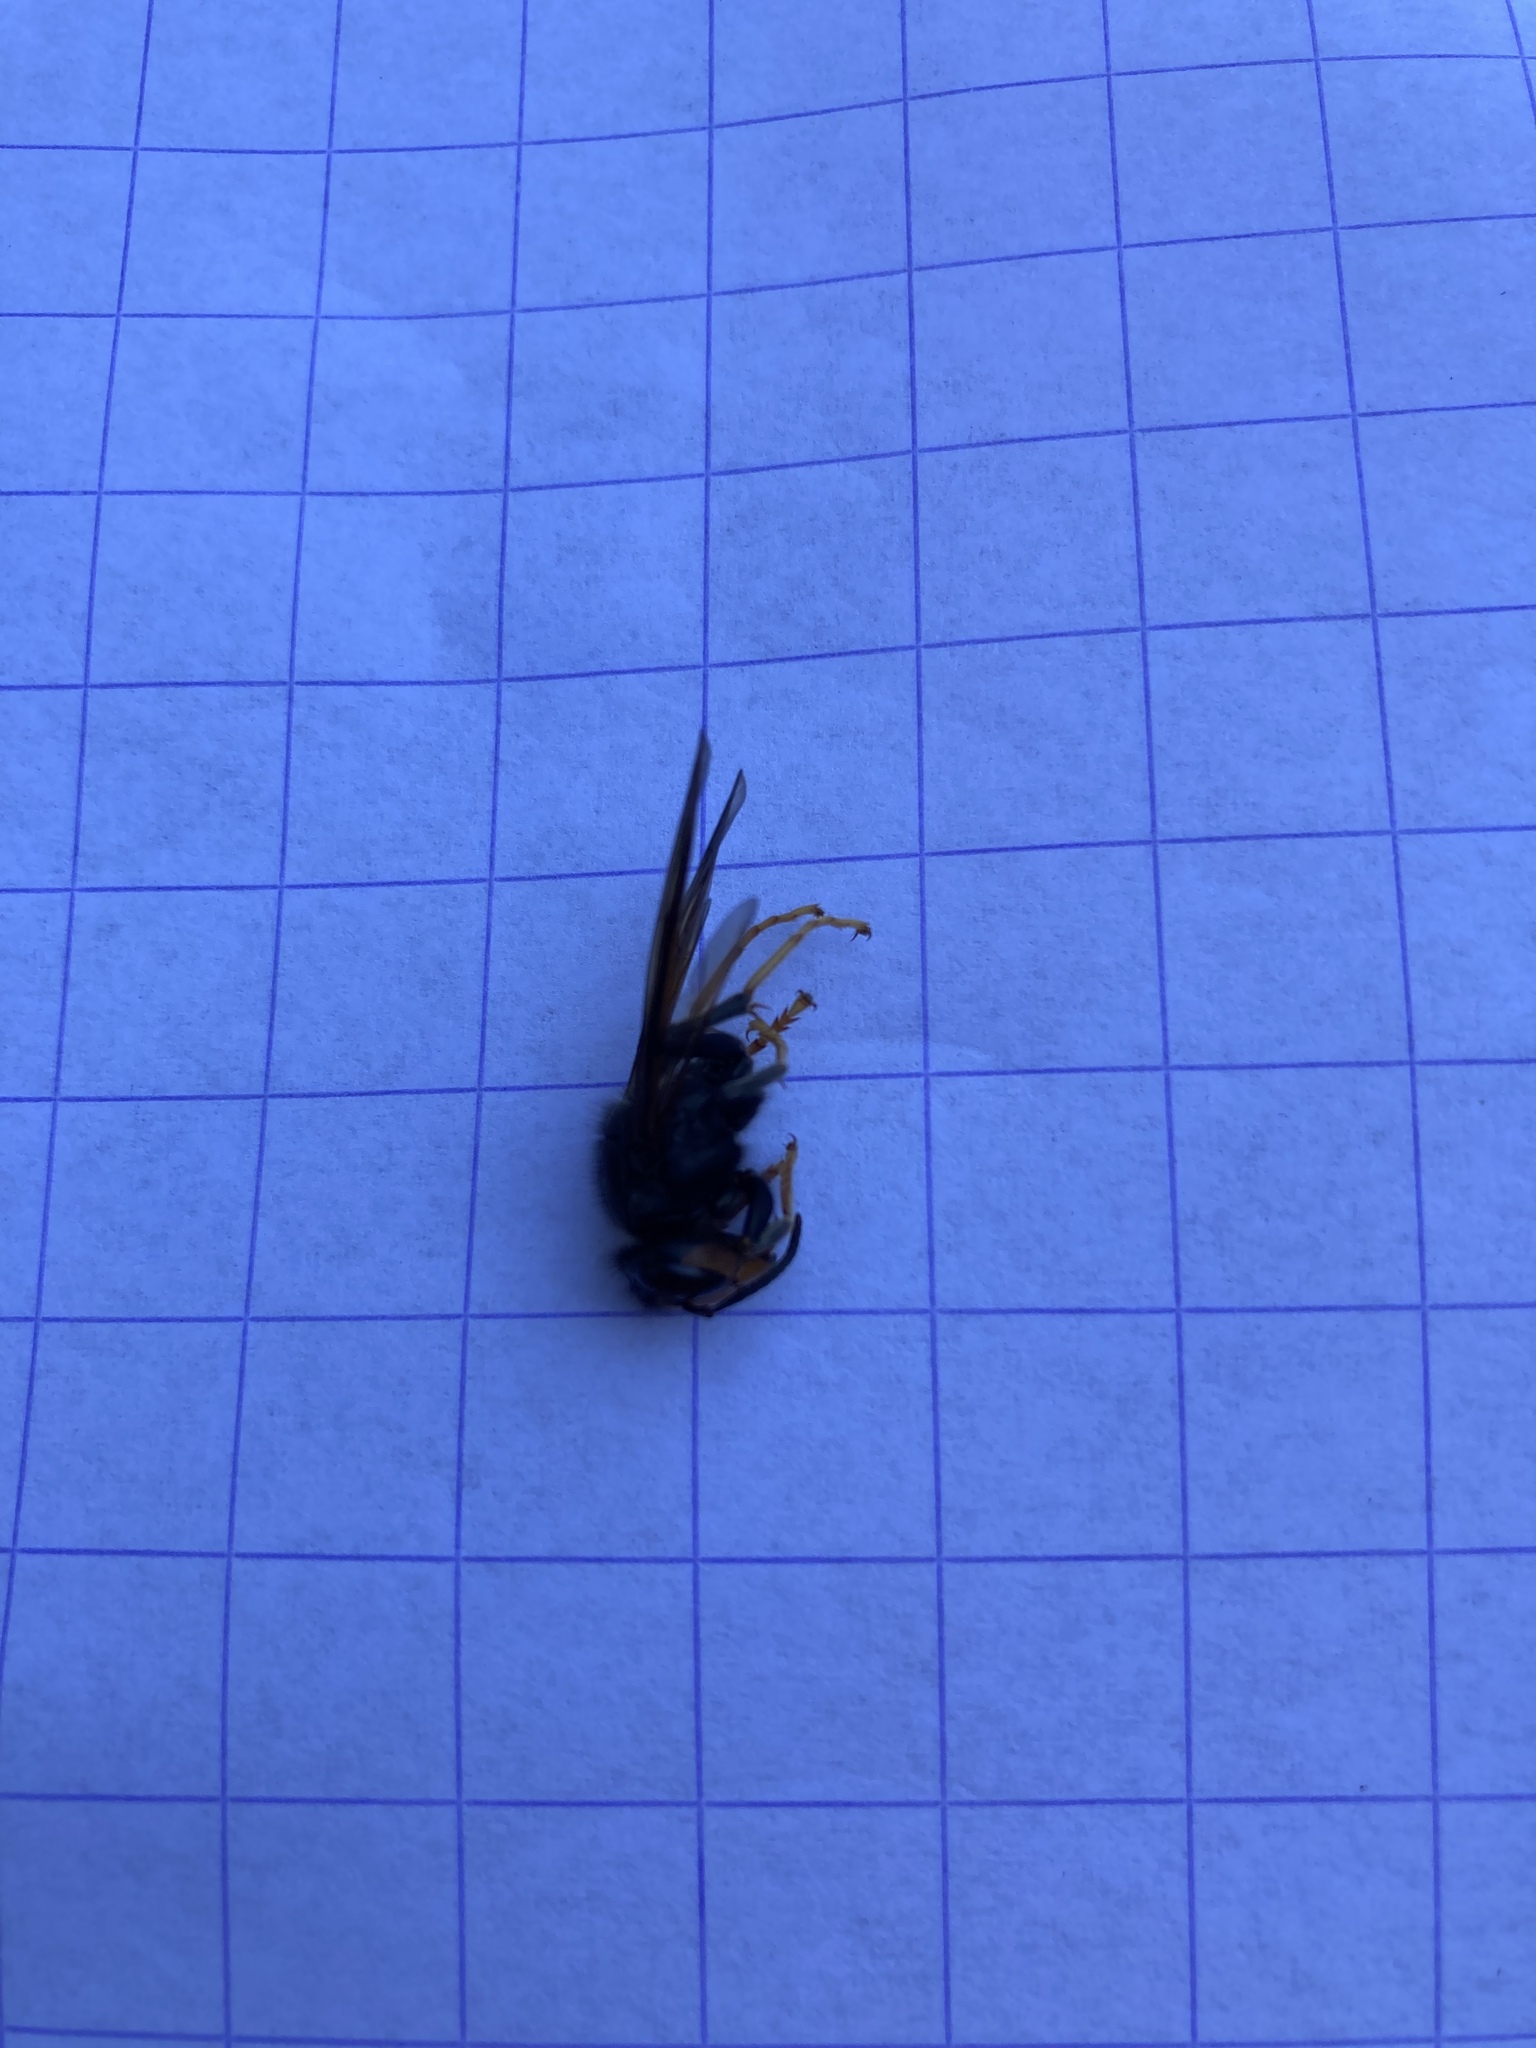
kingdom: Animalia
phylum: Arthropoda
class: Insecta
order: Hymenoptera
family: Vespidae
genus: Vespa
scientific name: Vespa velutina
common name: Asian hornet
